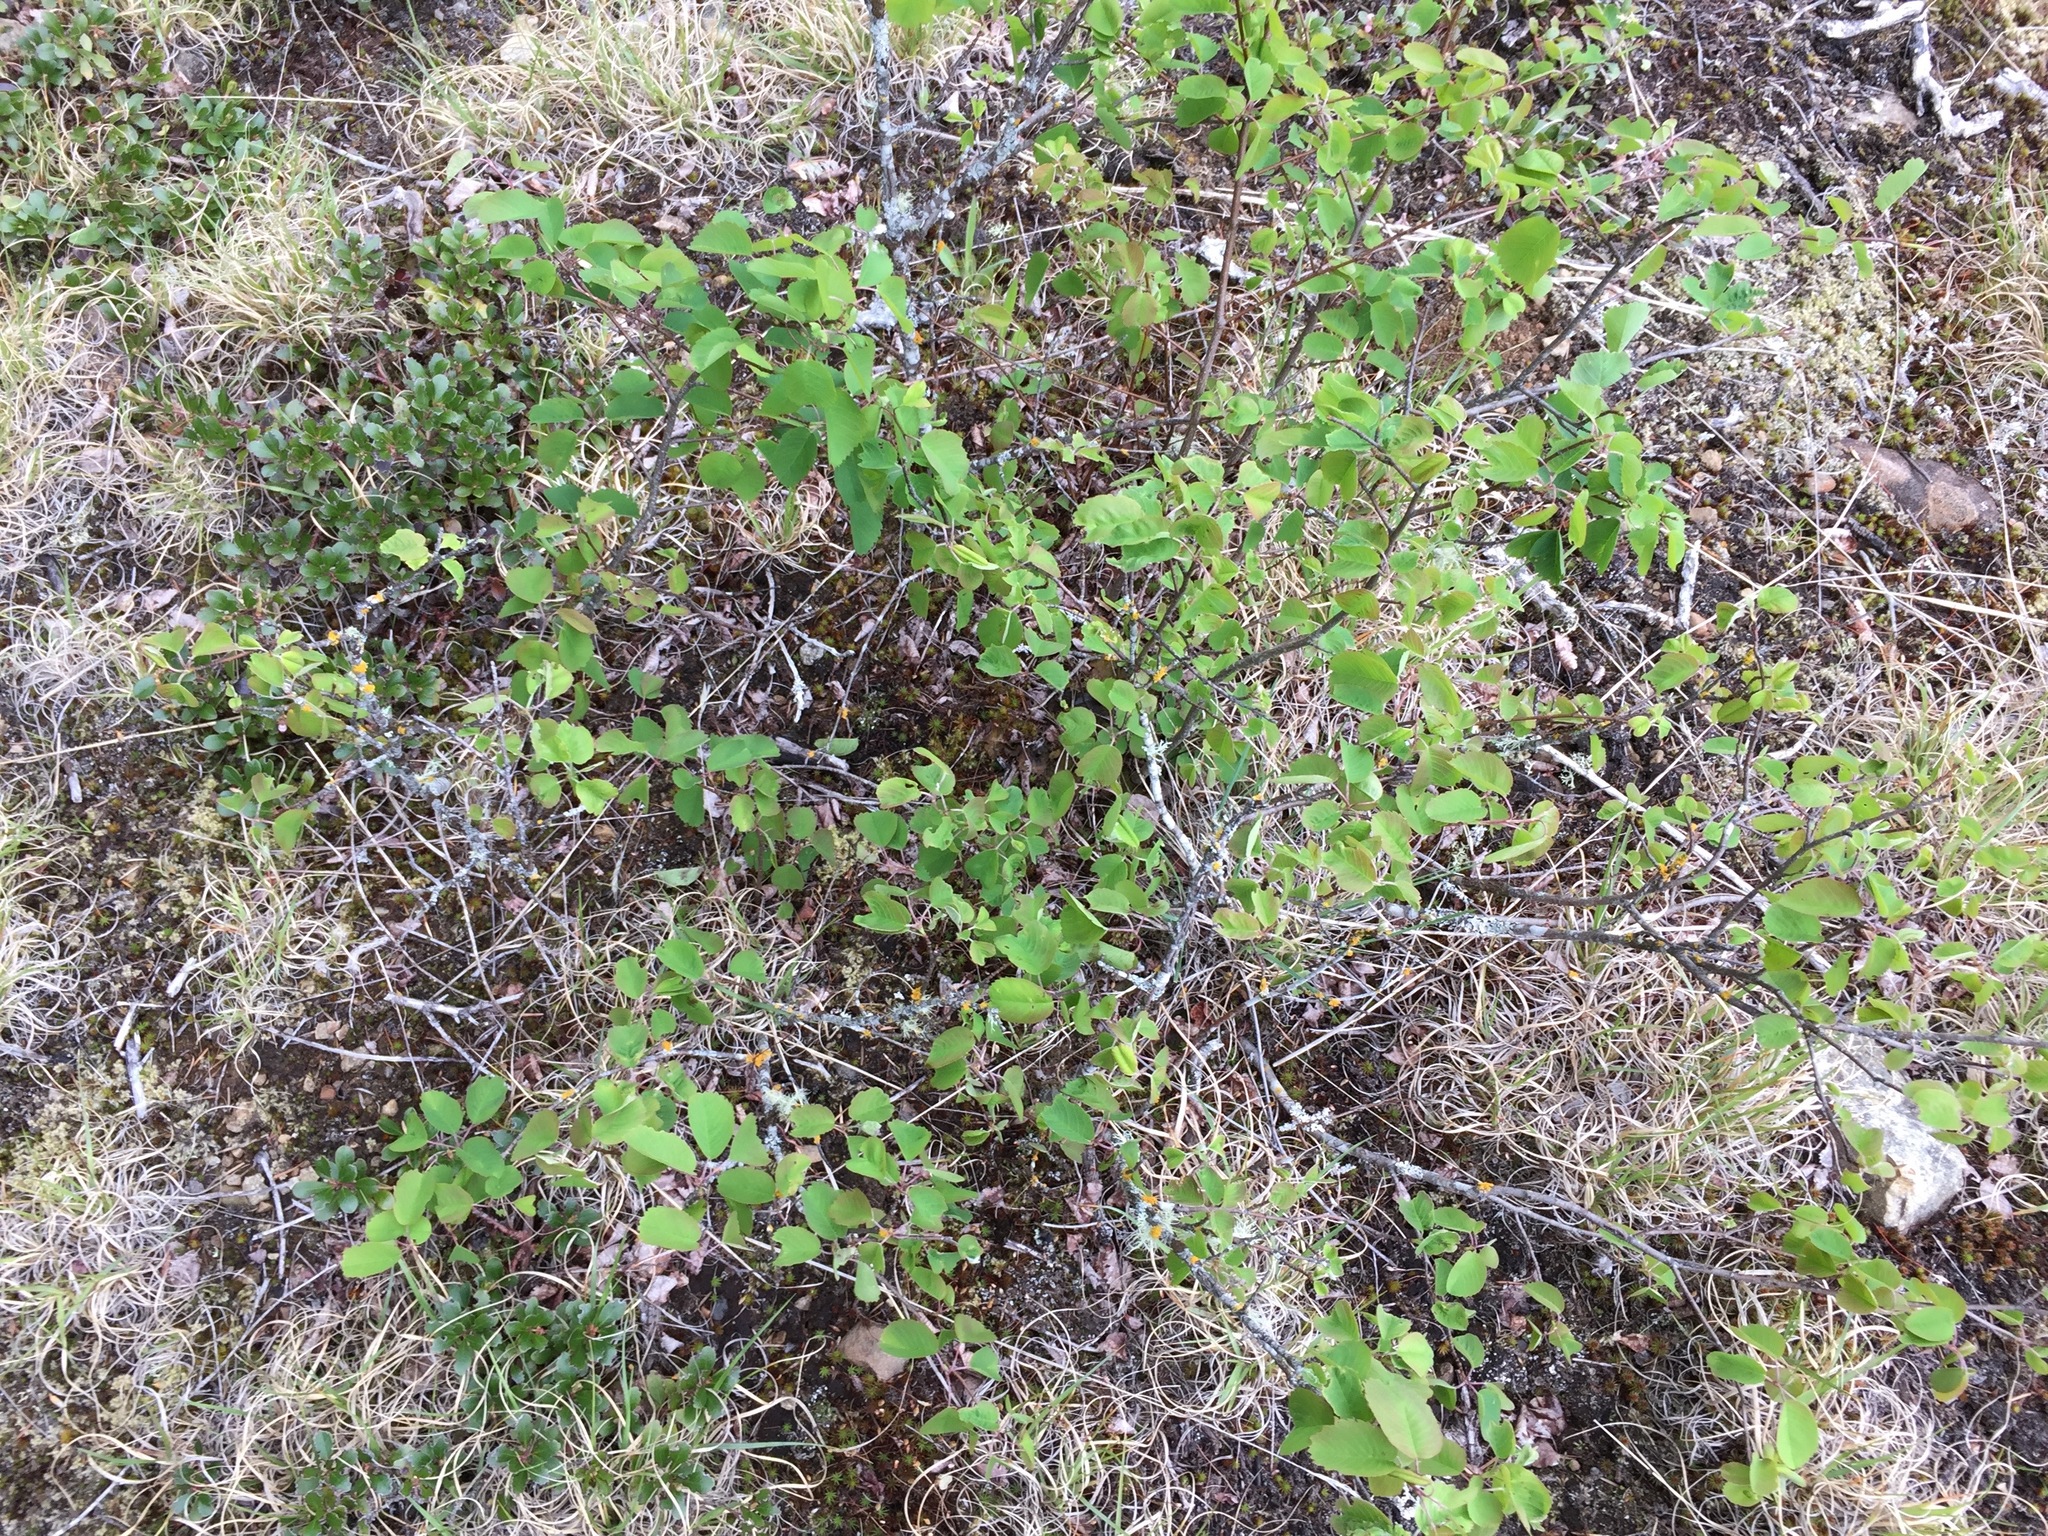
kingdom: Plantae
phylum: Tracheophyta
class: Magnoliopsida
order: Rosales
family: Rosaceae
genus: Spiraea
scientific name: Spiraea lucida
